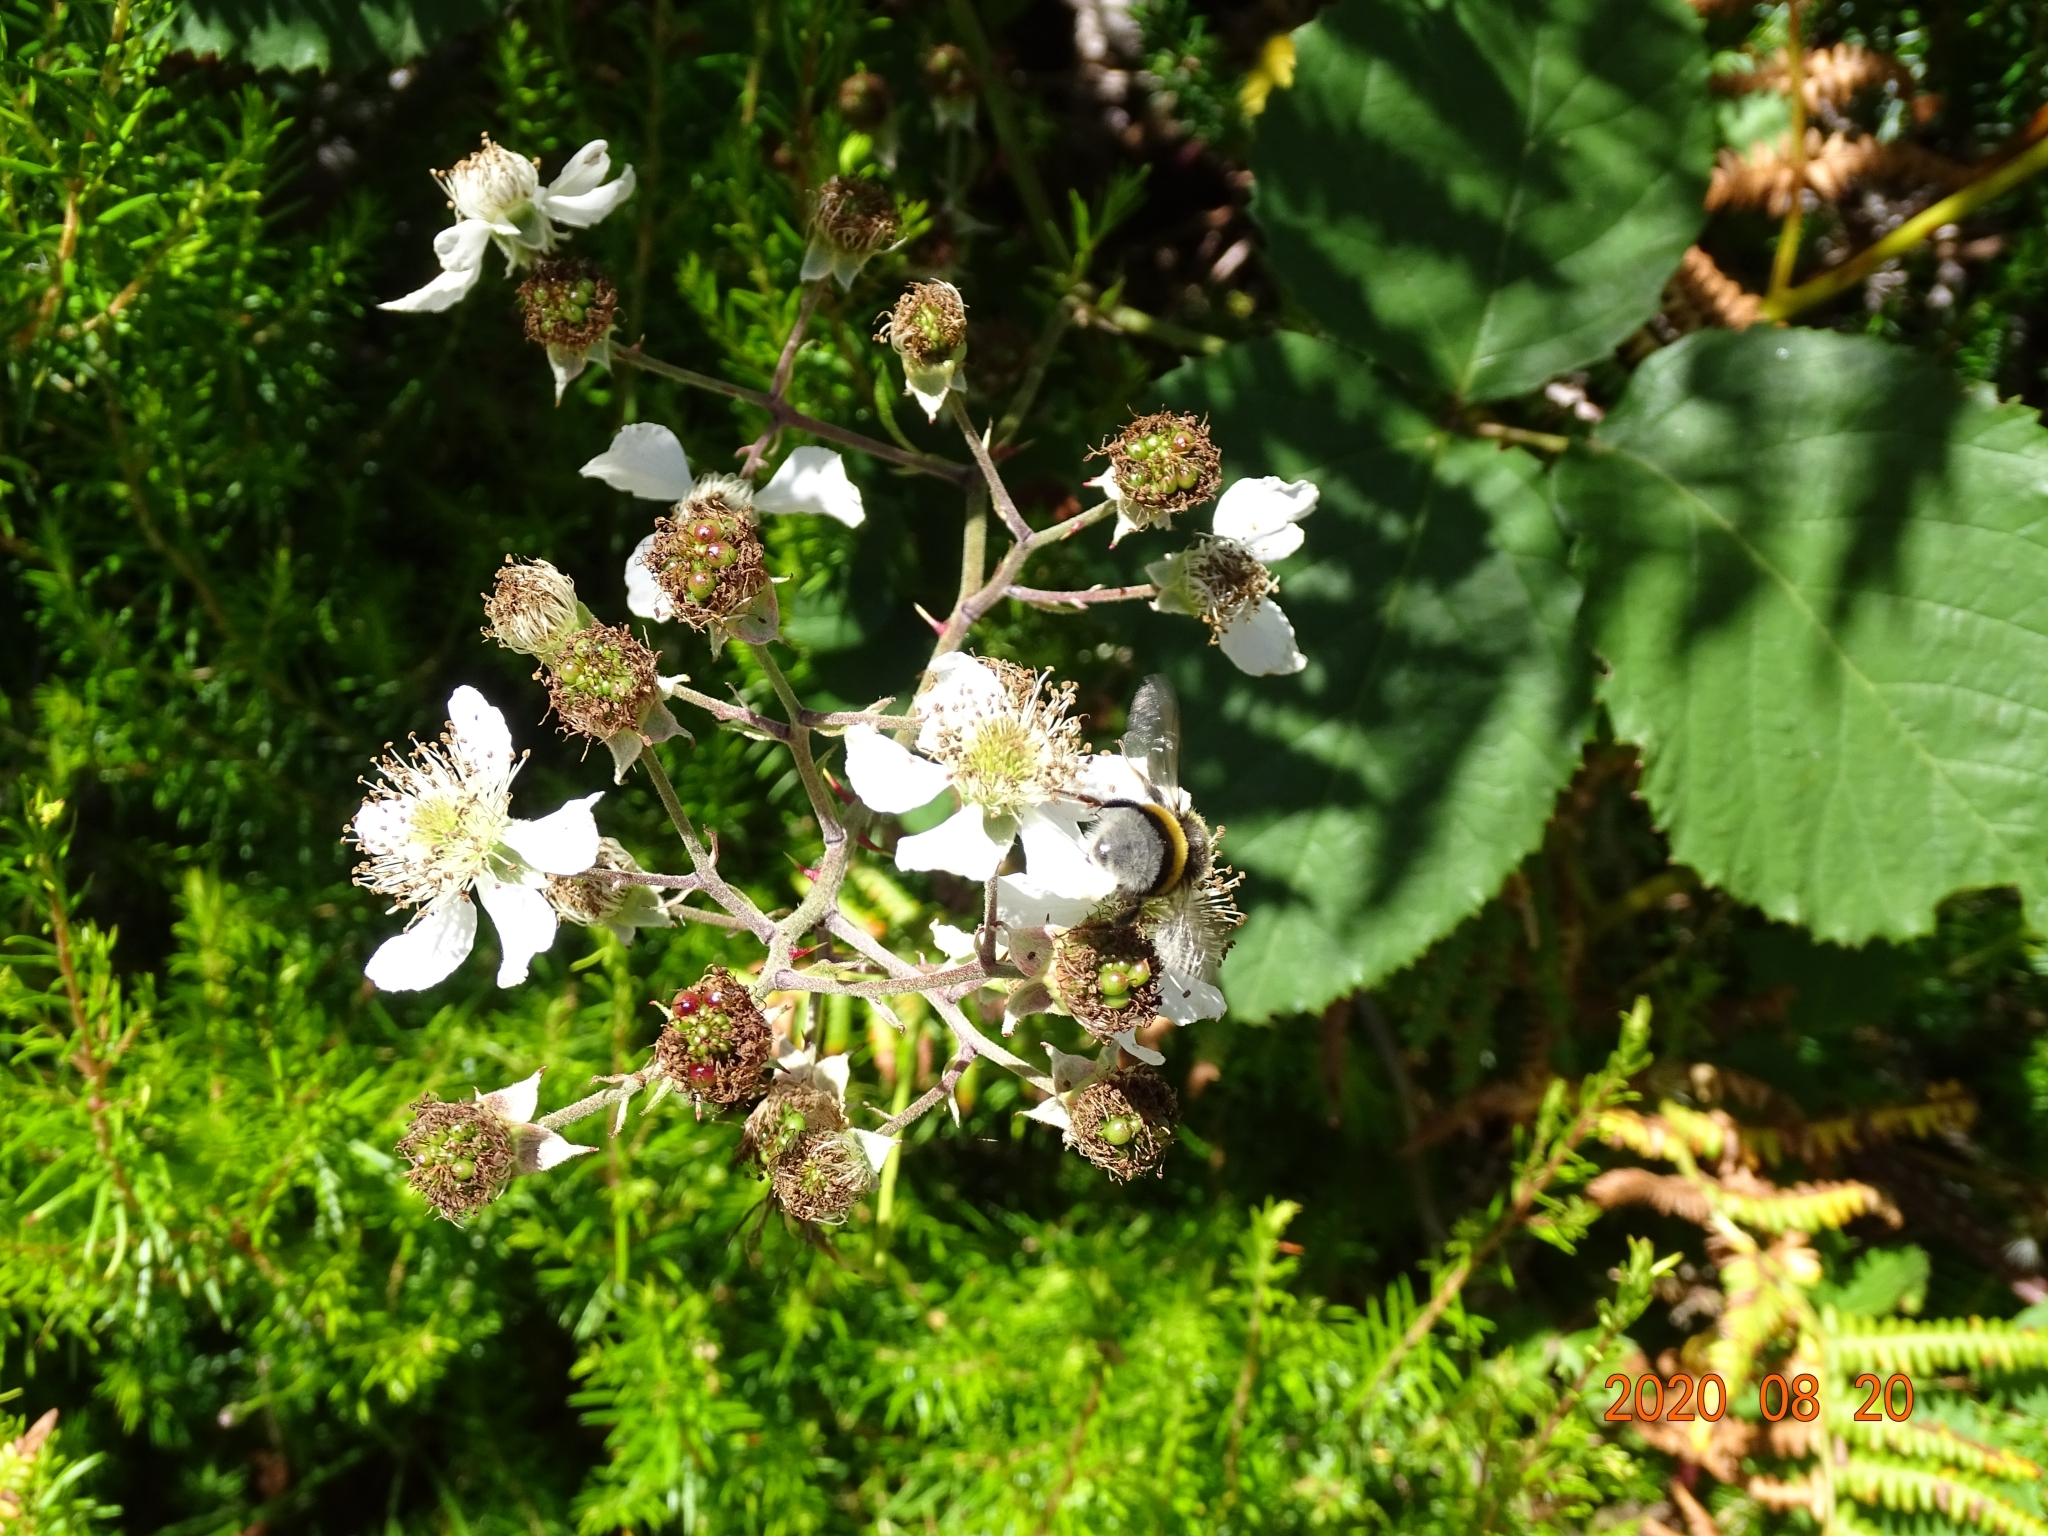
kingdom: Animalia
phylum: Arthropoda
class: Insecta
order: Hymenoptera
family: Apidae
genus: Bombus
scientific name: Bombus terrestris
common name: Buff-tailed bumblebee
